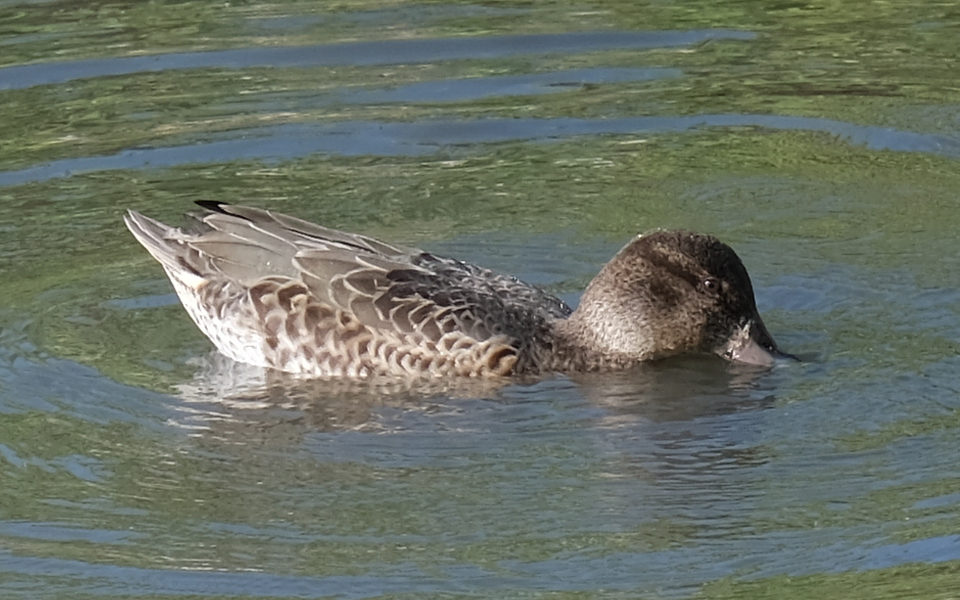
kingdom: Animalia
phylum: Chordata
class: Aves
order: Anseriformes
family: Anatidae
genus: Anas
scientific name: Anas crecca
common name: Eurasian teal
